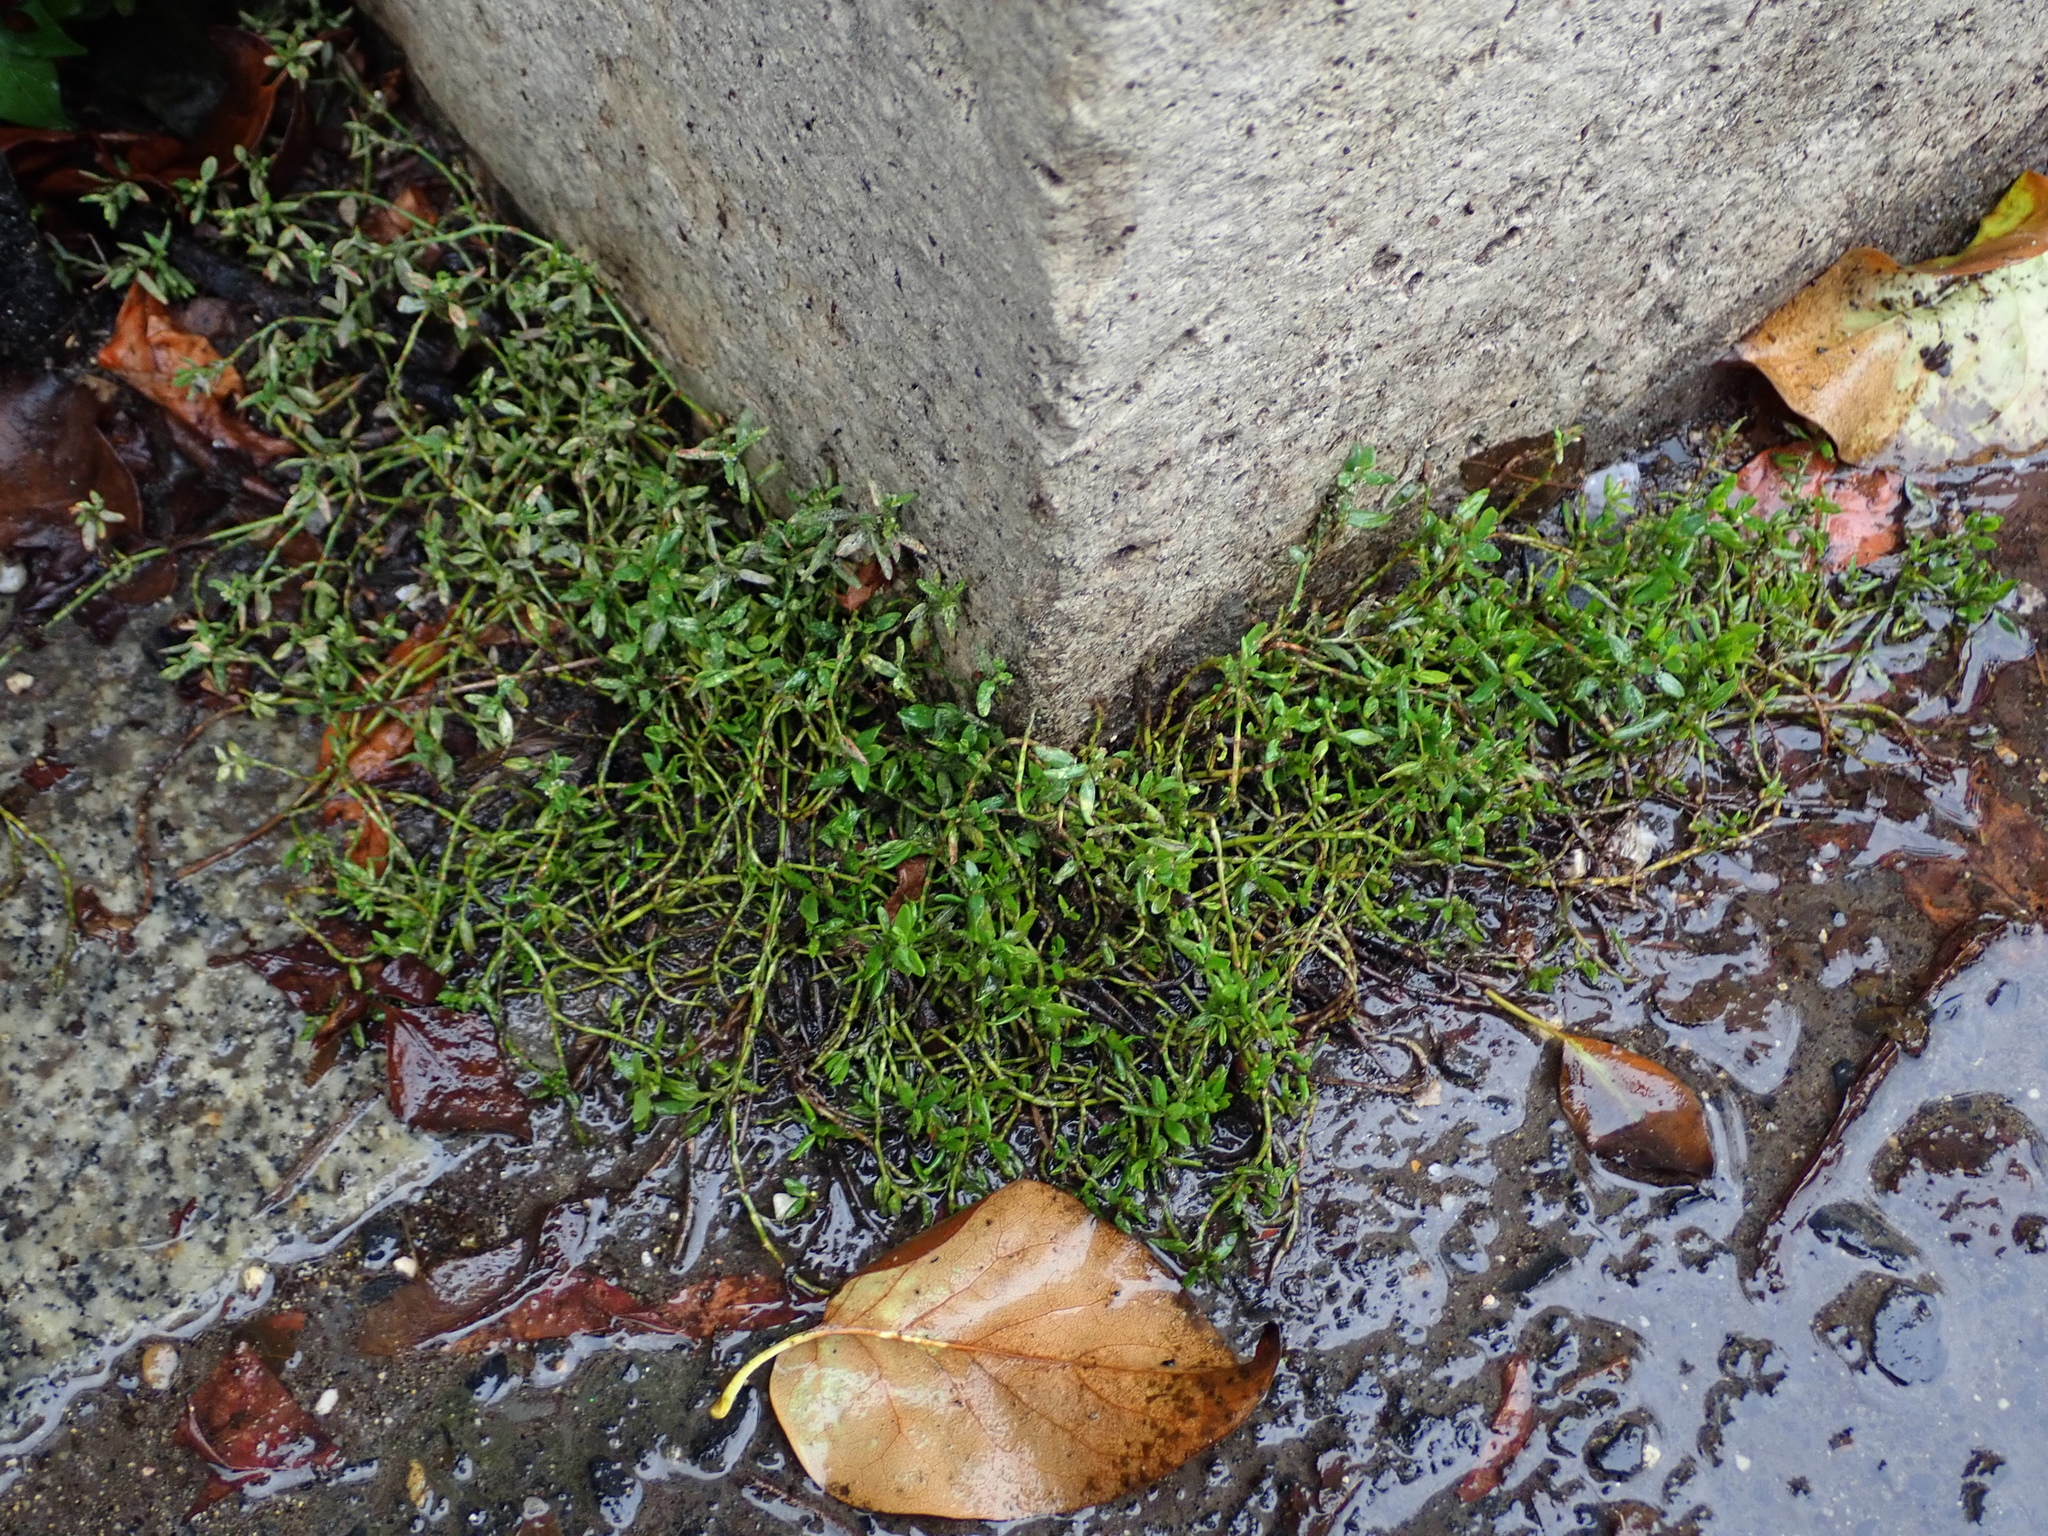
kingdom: Plantae
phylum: Tracheophyta
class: Magnoliopsida
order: Caryophyllales
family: Polygonaceae
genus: Polygonum
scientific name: Polygonum aviculare
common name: Prostrate knotweed
